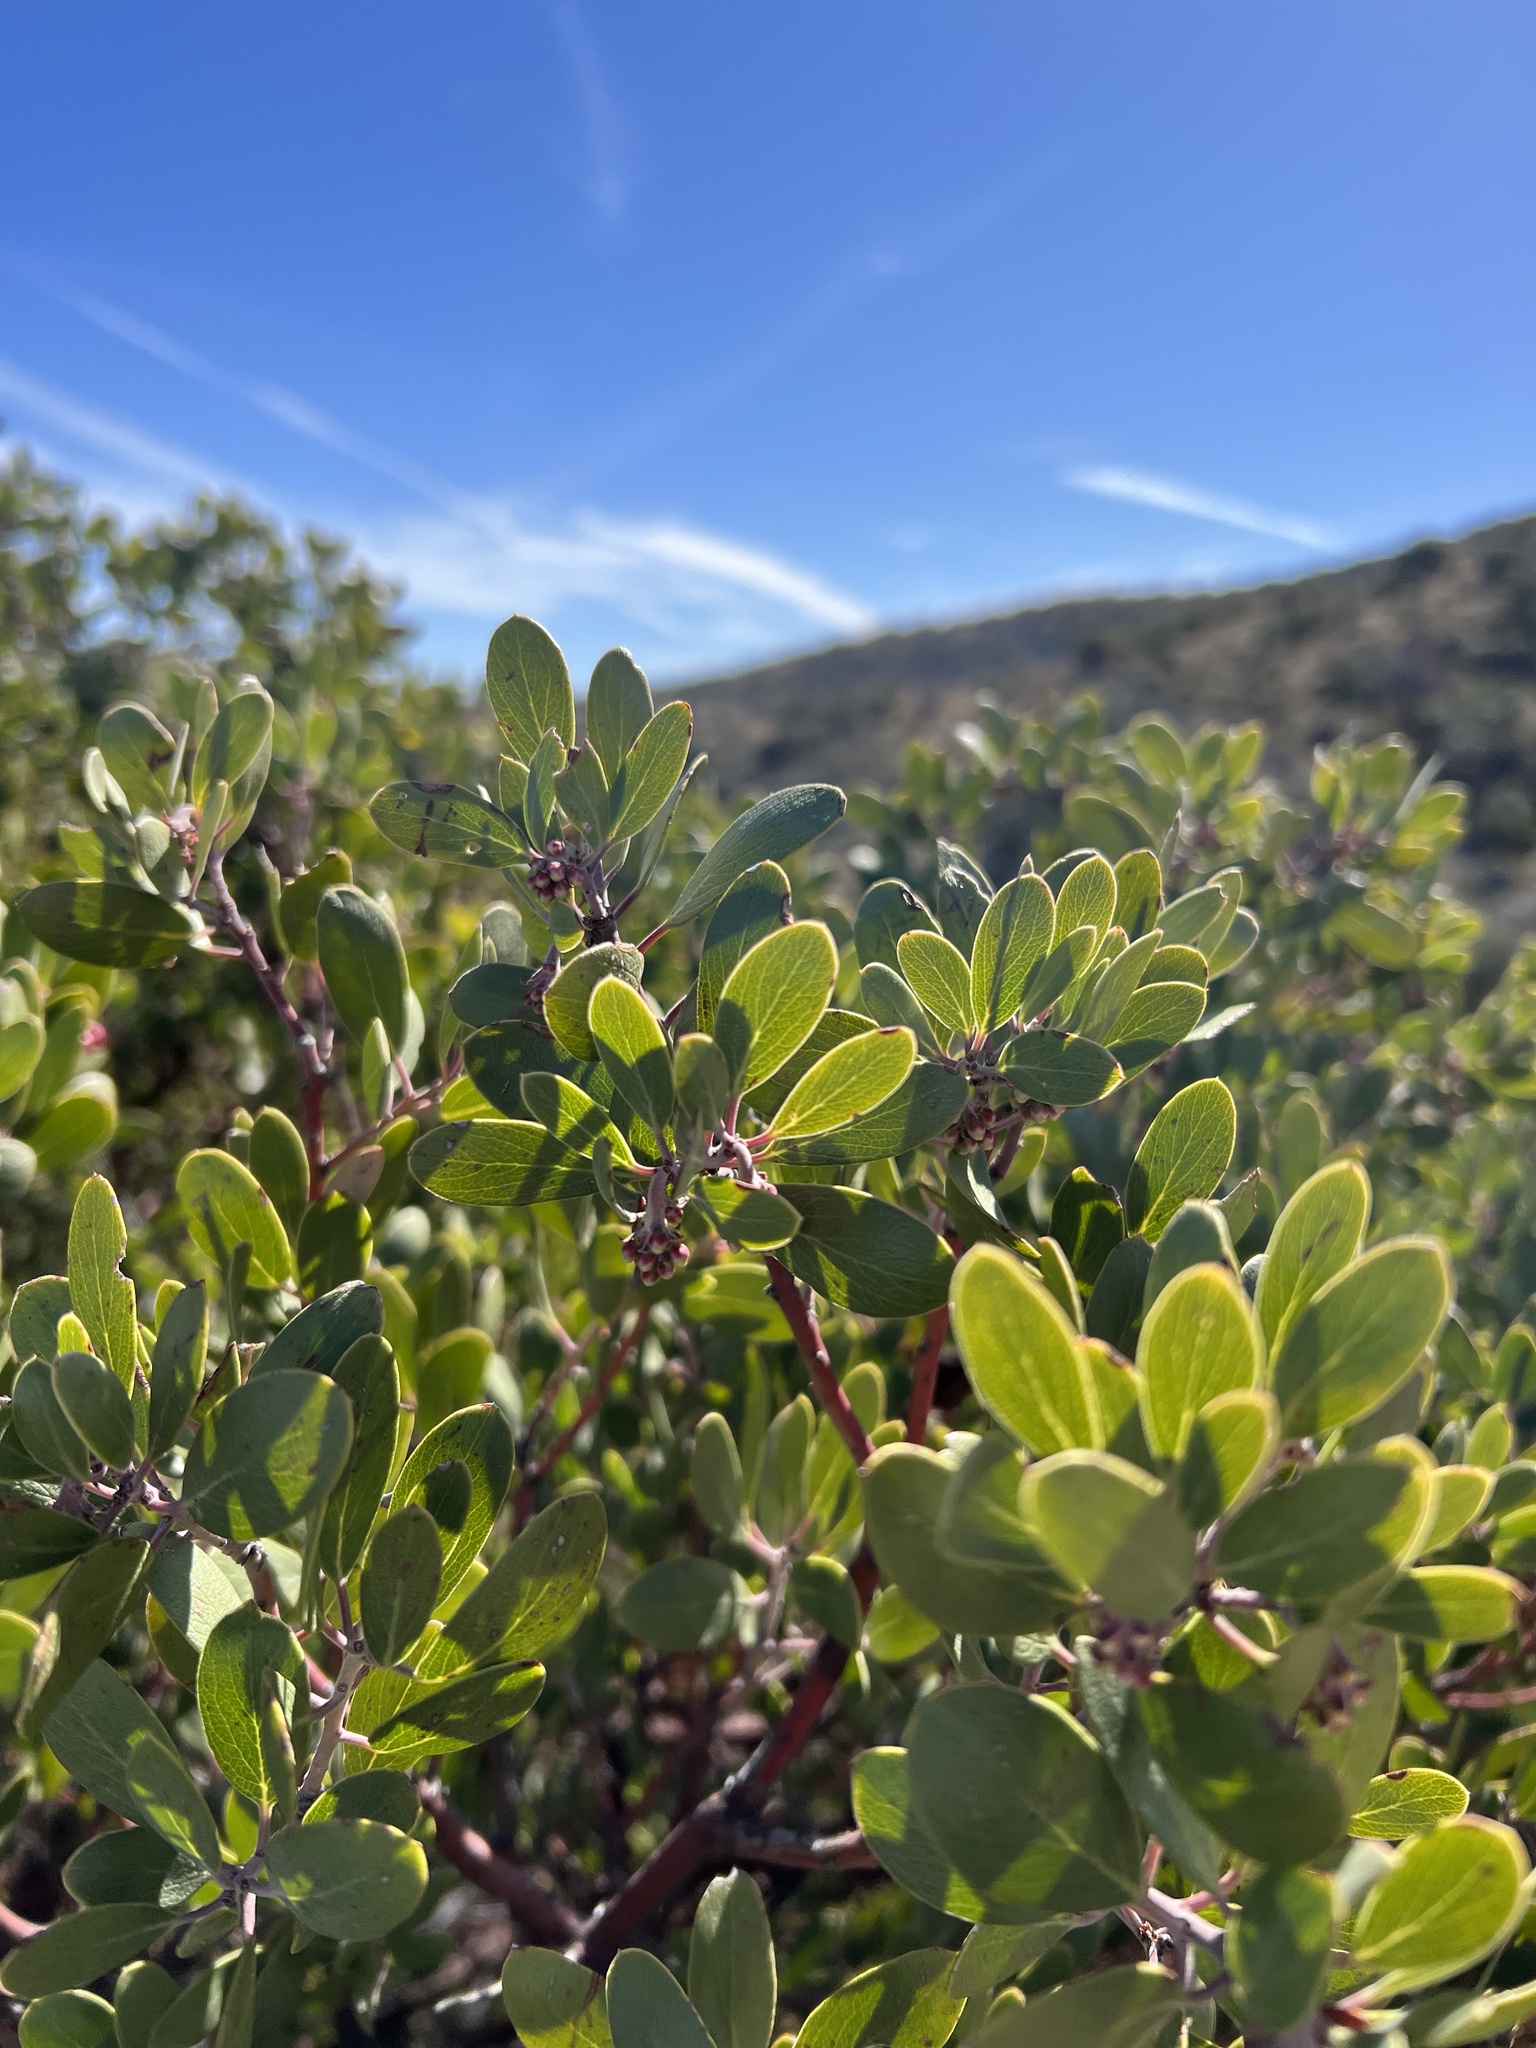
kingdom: Plantae
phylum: Tracheophyta
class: Magnoliopsida
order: Ericales
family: Ericaceae
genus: Arctostaphylos
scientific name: Arctostaphylos pungens
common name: Mexican manzanita
